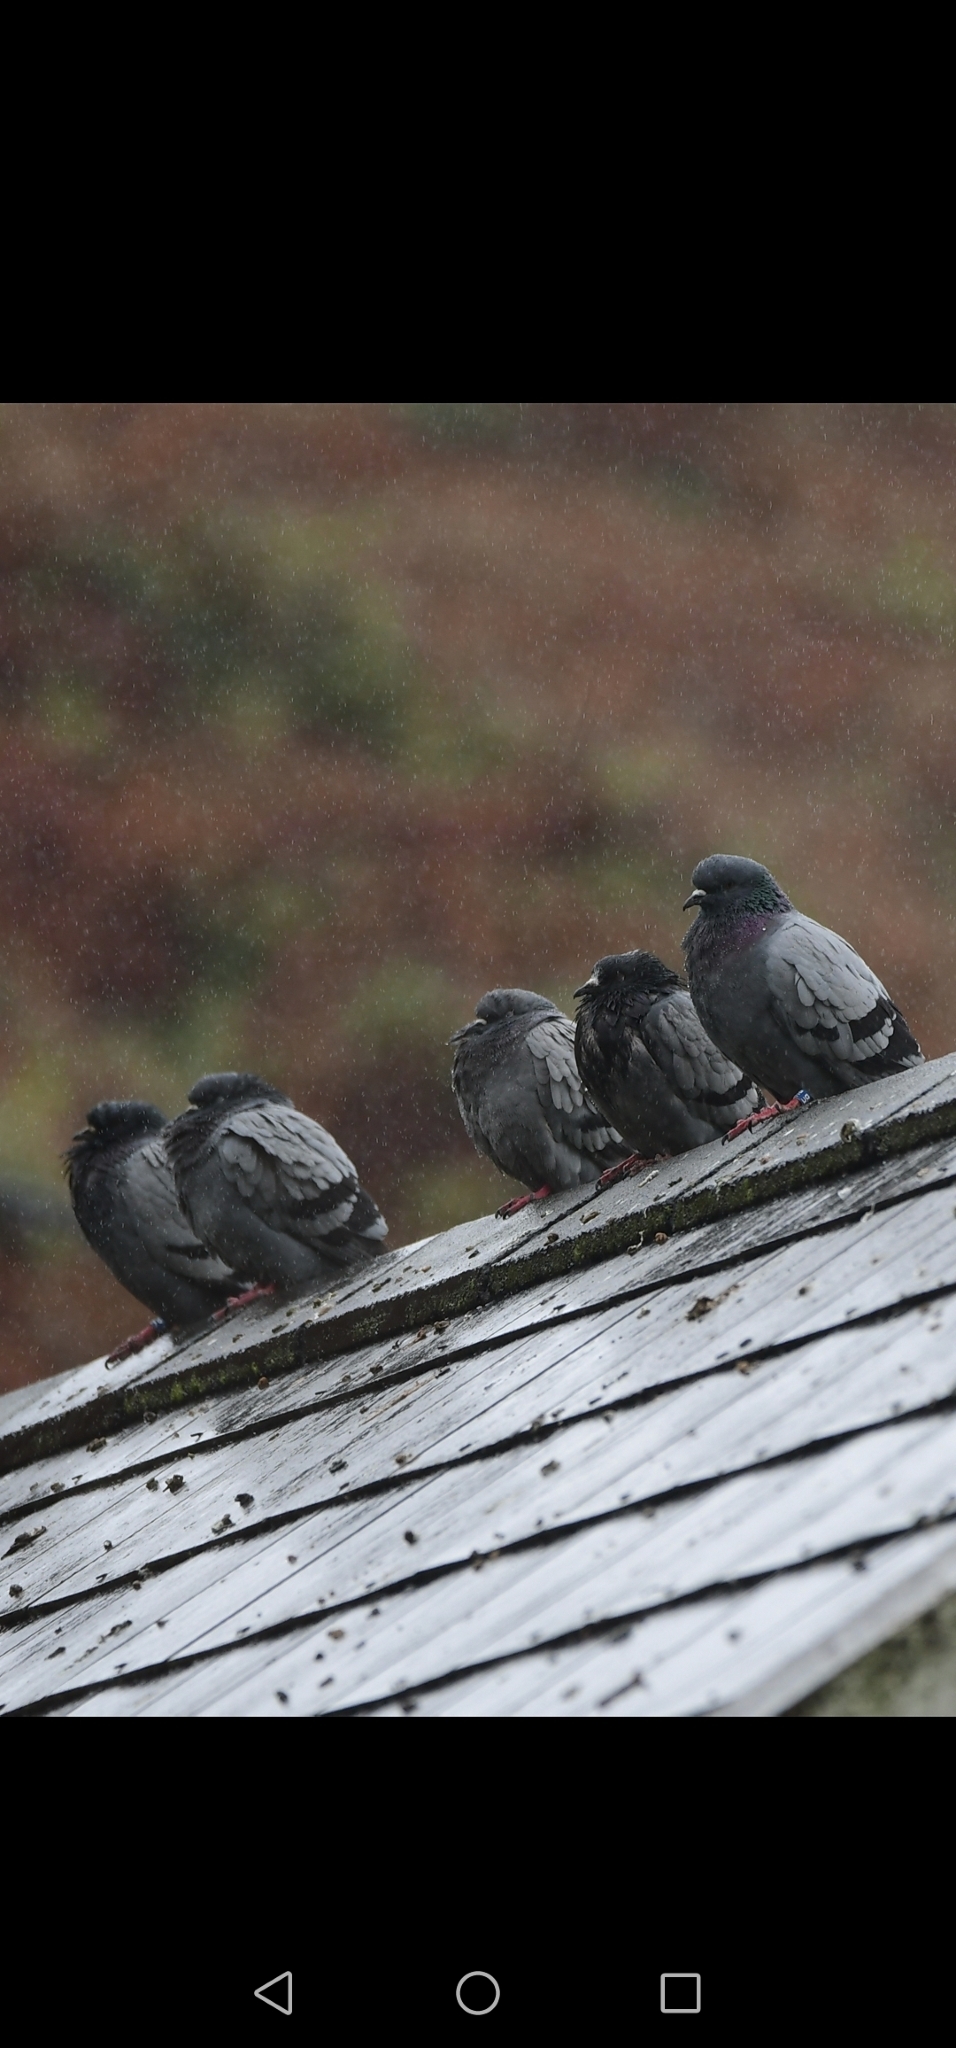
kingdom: Animalia
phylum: Chordata
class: Aves
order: Columbiformes
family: Columbidae
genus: Columba
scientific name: Columba livia
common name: Rock pigeon
